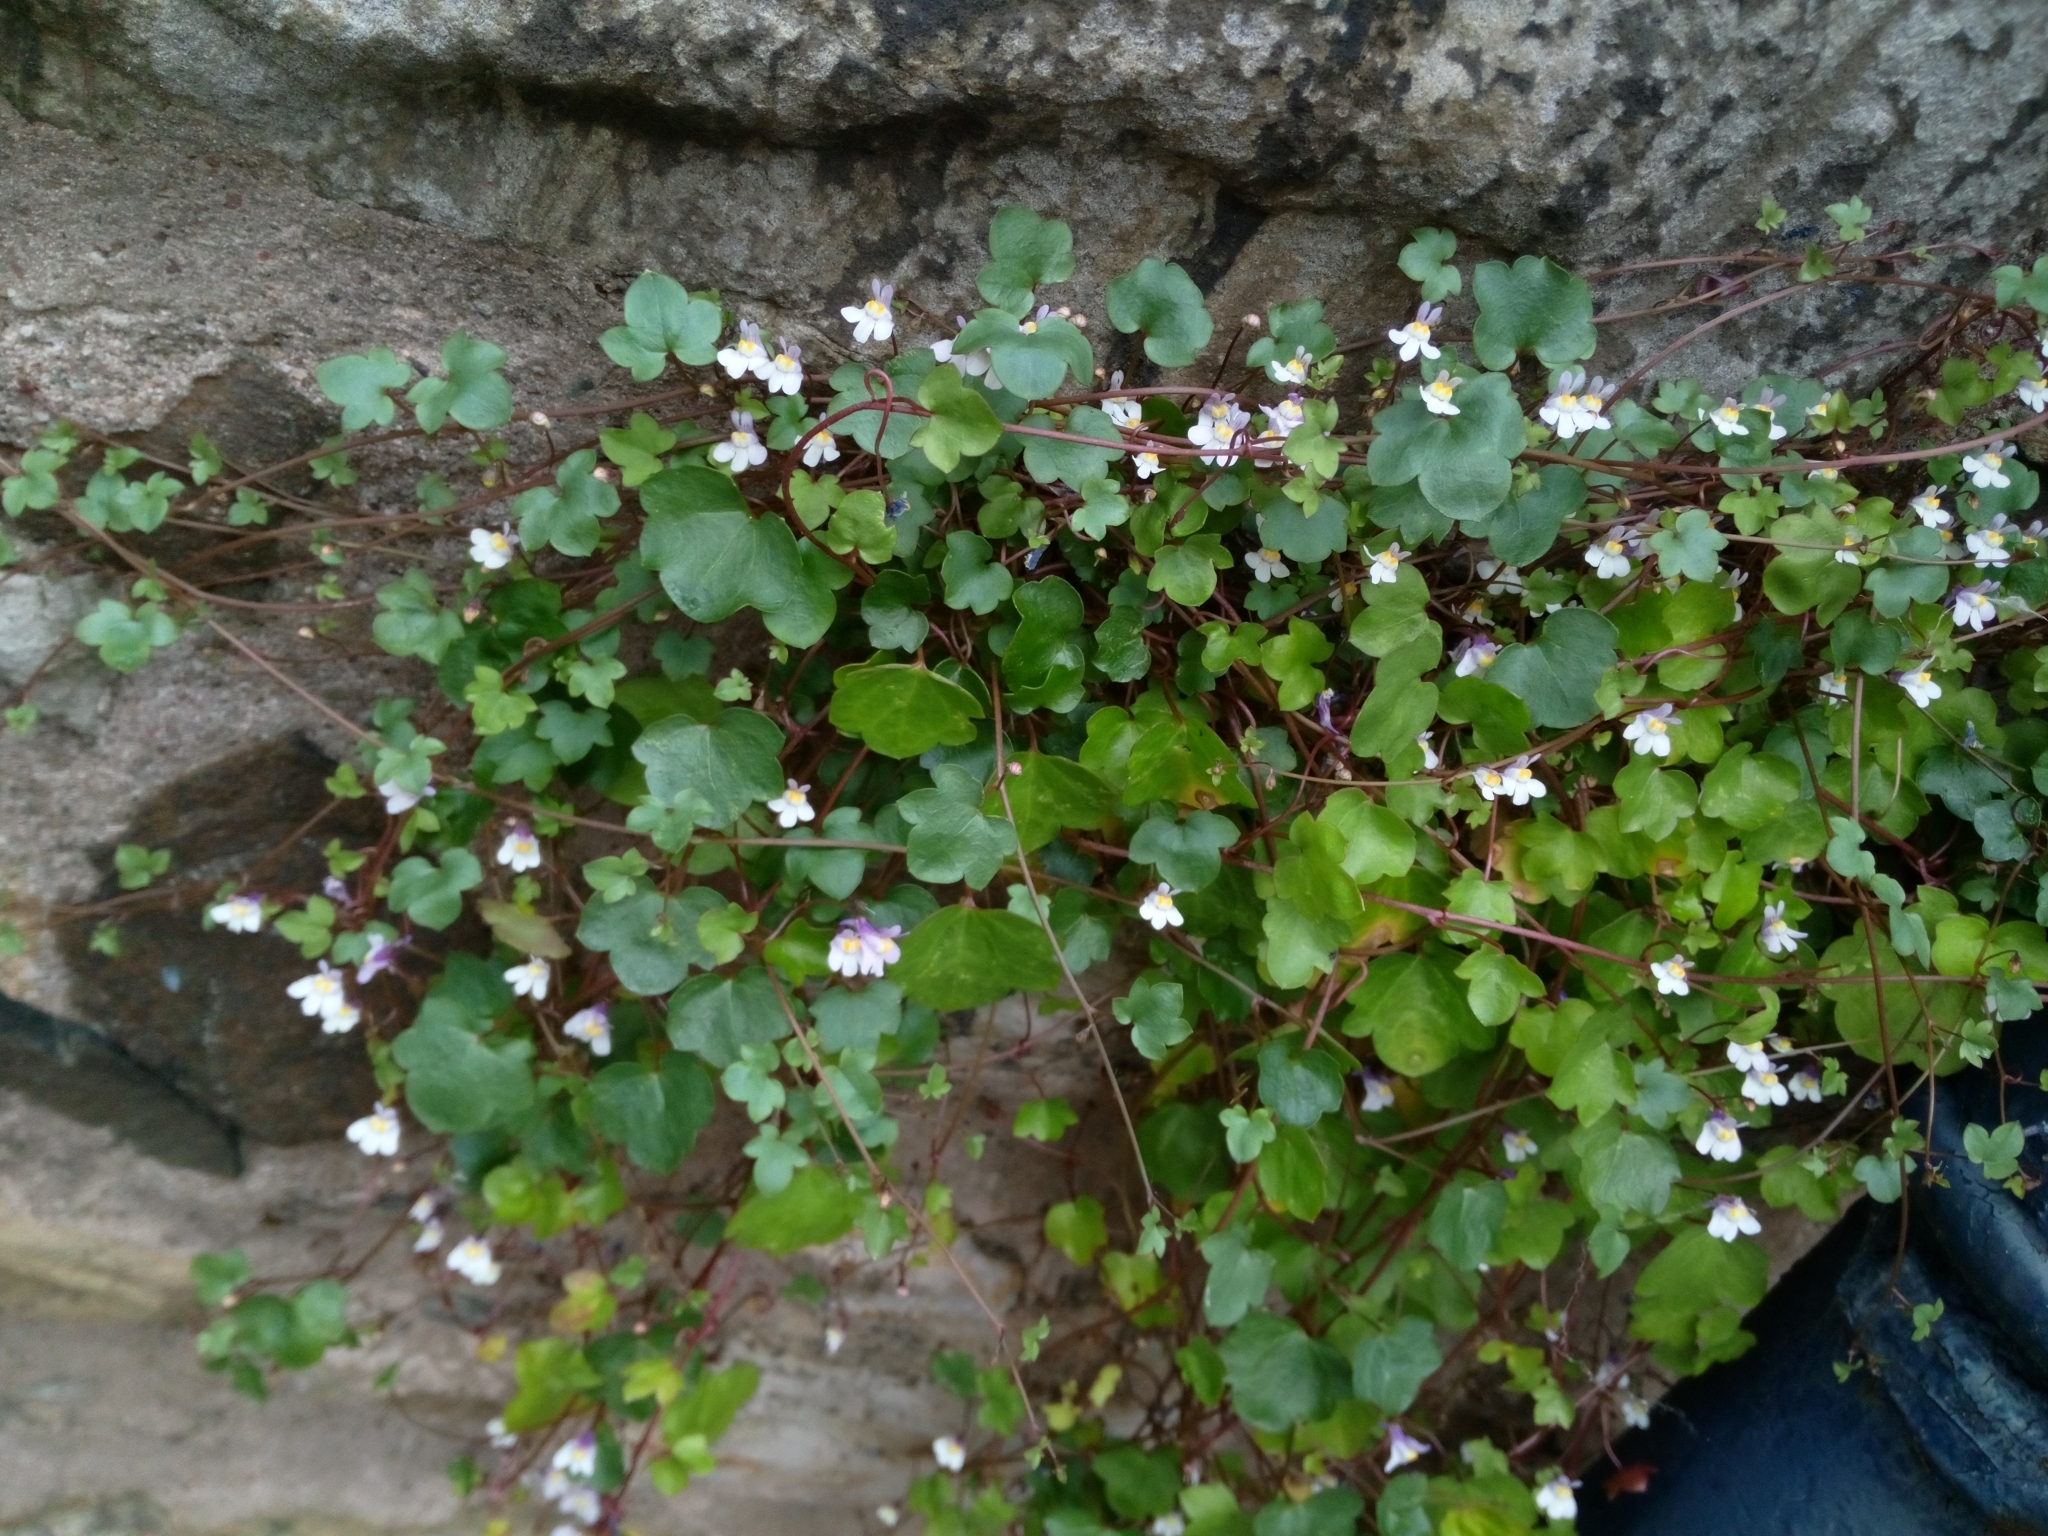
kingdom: Plantae
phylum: Tracheophyta
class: Magnoliopsida
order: Lamiales
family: Plantaginaceae
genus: Cymbalaria
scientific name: Cymbalaria muralis
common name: Ivy-leaved toadflax
